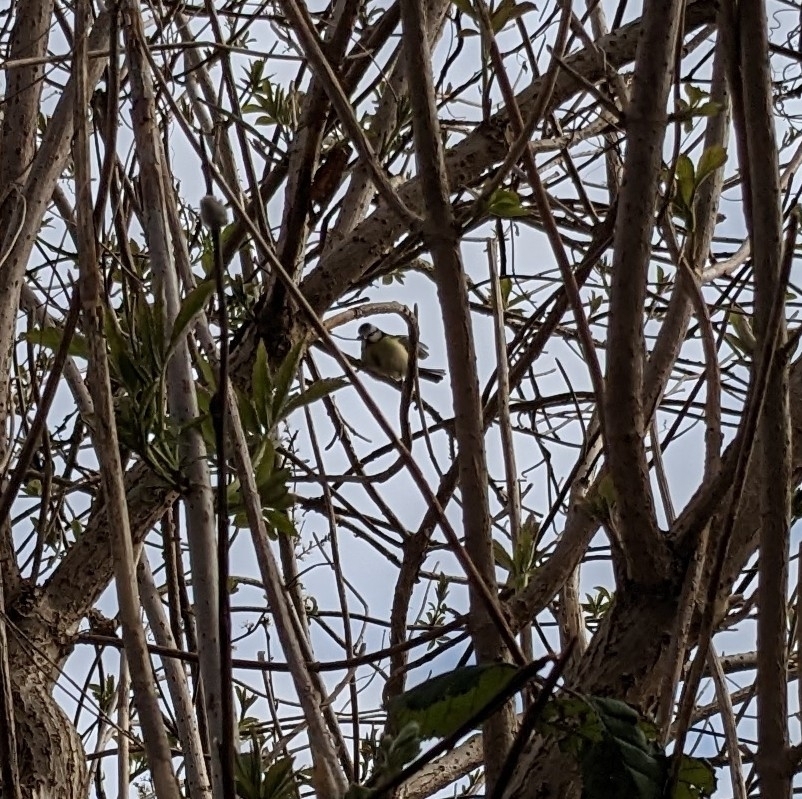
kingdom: Animalia
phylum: Chordata
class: Aves
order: Passeriformes
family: Paridae
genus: Cyanistes
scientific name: Cyanistes caeruleus
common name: Eurasian blue tit
